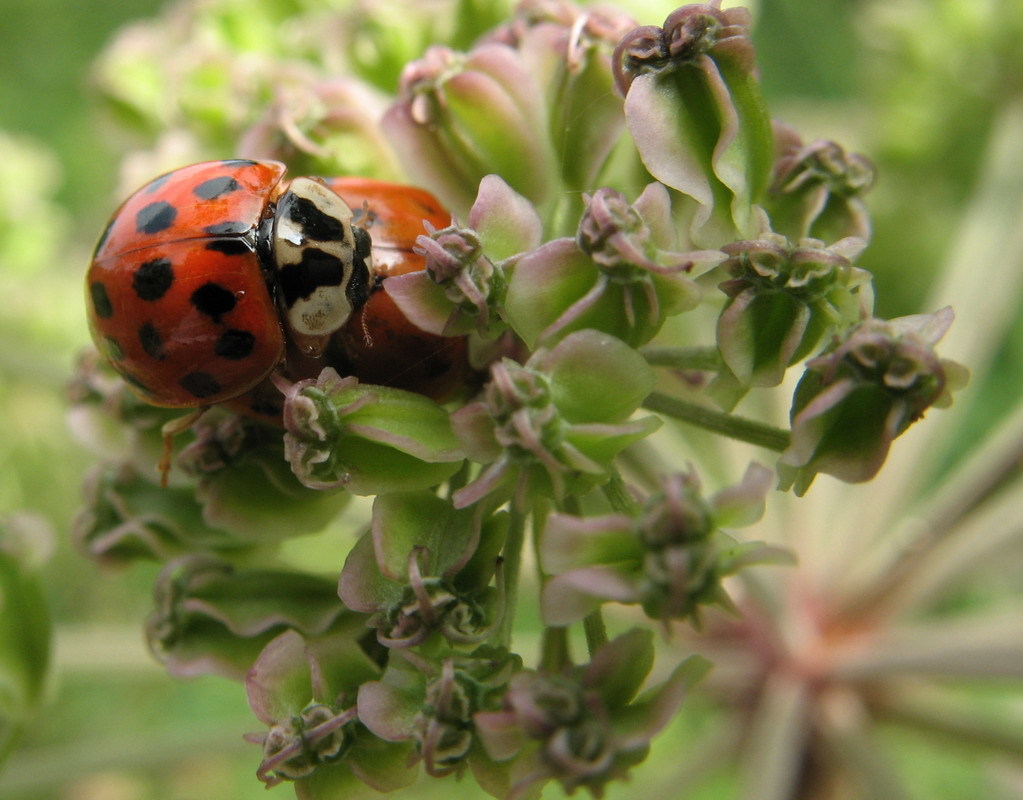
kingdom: Animalia
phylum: Arthropoda
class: Insecta
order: Coleoptera
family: Coccinellidae
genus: Harmonia
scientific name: Harmonia axyridis
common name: Harlequin ladybird
